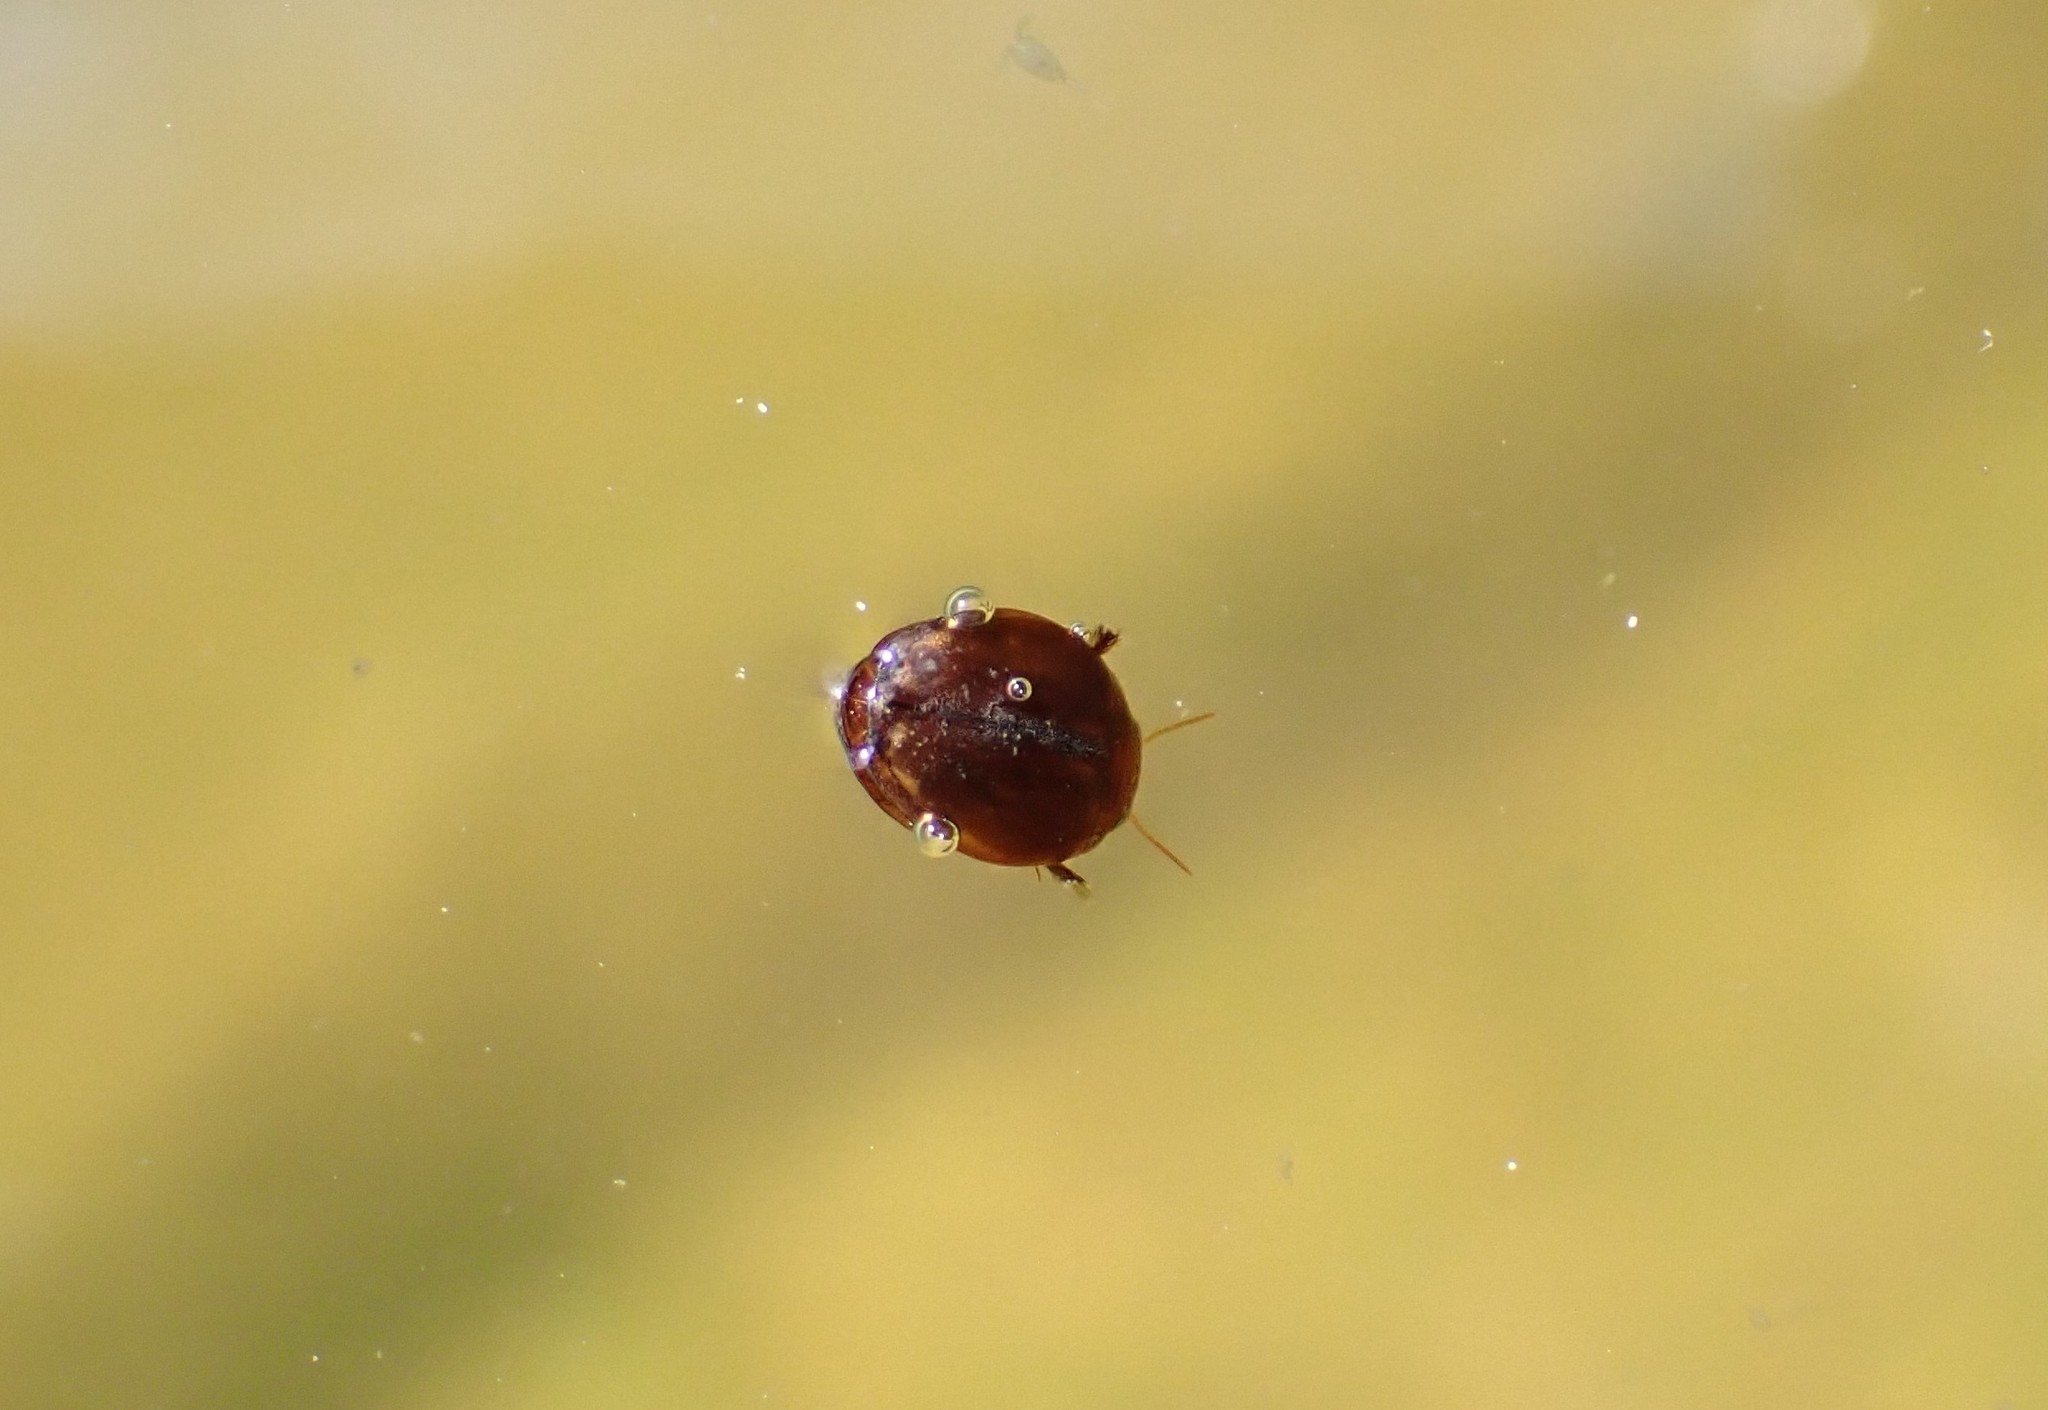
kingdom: Animalia
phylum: Arthropoda
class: Insecta
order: Coleoptera
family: Dytiscidae
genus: Hyphydrus
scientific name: Hyphydrus ovatus
